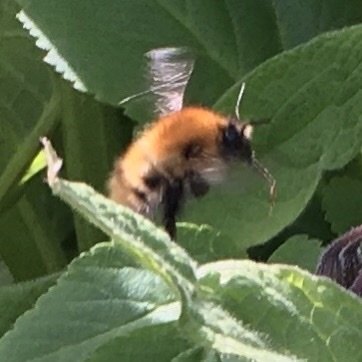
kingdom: Animalia
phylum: Arthropoda
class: Insecta
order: Hymenoptera
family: Apidae
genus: Bombus
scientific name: Bombus pascuorum
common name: Common carder bee
